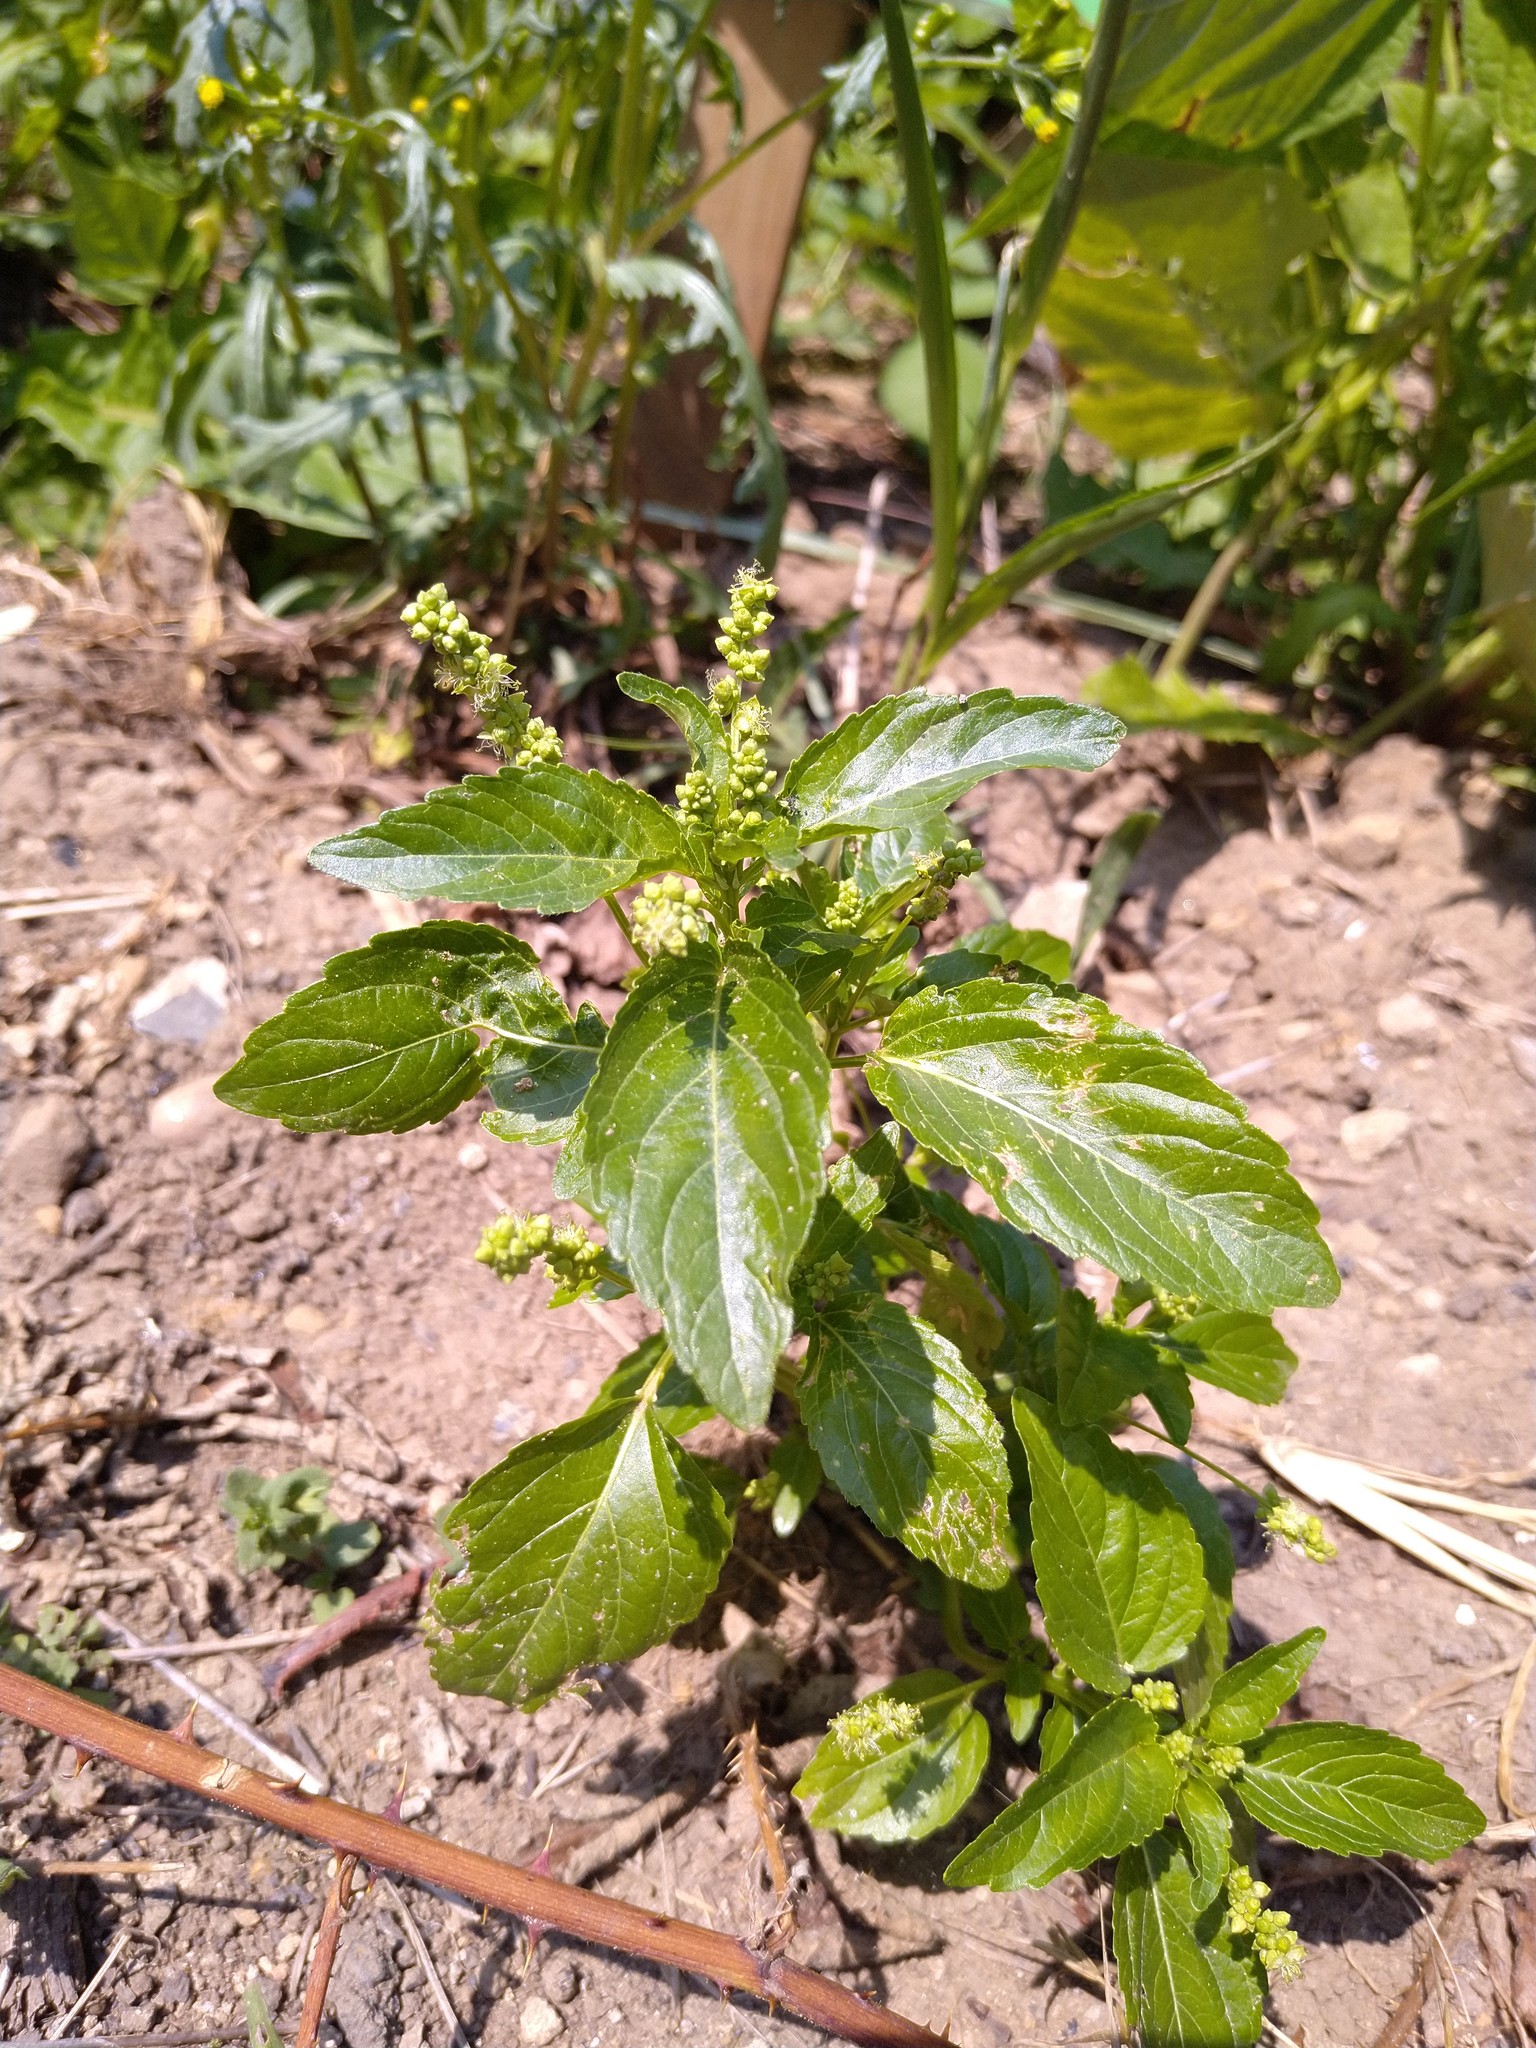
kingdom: Plantae
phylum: Tracheophyta
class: Magnoliopsida
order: Malpighiales
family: Euphorbiaceae
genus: Mercurialis
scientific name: Mercurialis annua
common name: Annual mercury
